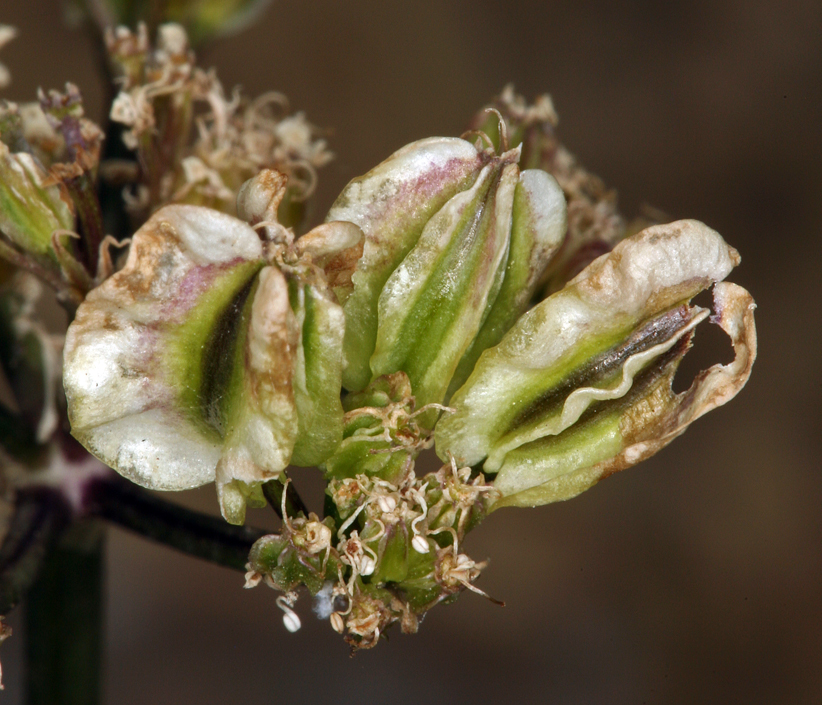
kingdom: Plantae
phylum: Tracheophyta
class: Magnoliopsida
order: Apiales
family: Apiaceae
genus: Aulospermum
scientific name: Aulospermum aboriginum
